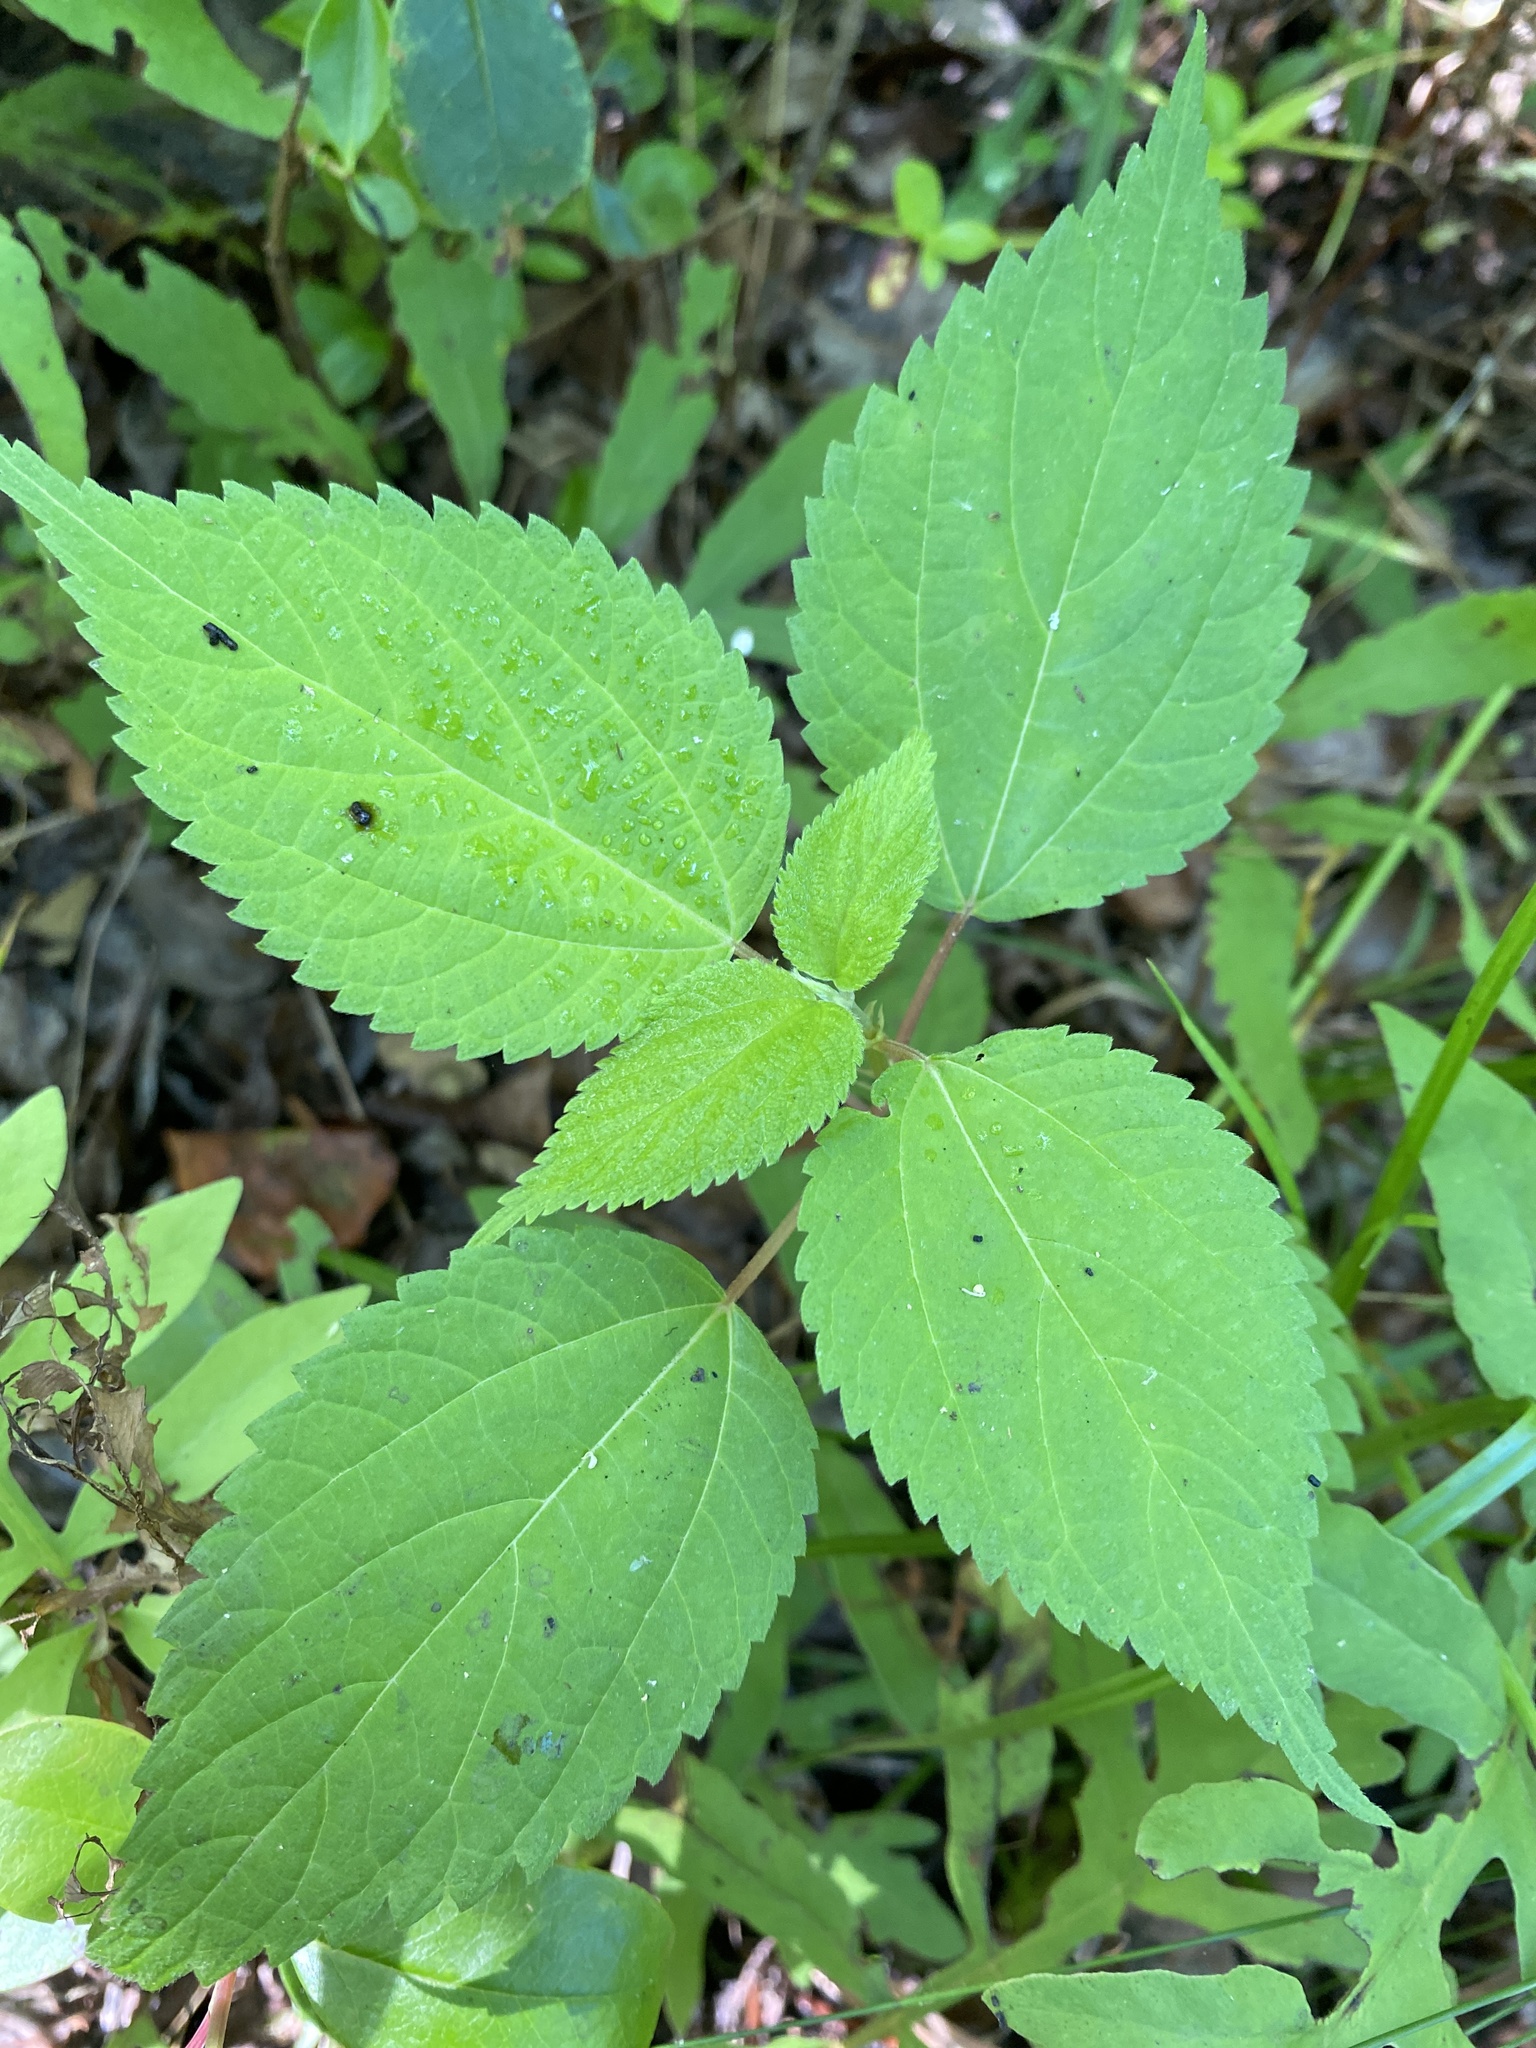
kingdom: Plantae
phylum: Tracheophyta
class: Magnoliopsida
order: Rosales
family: Urticaceae
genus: Boehmeria
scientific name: Boehmeria cylindrica
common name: Bog-hemp
